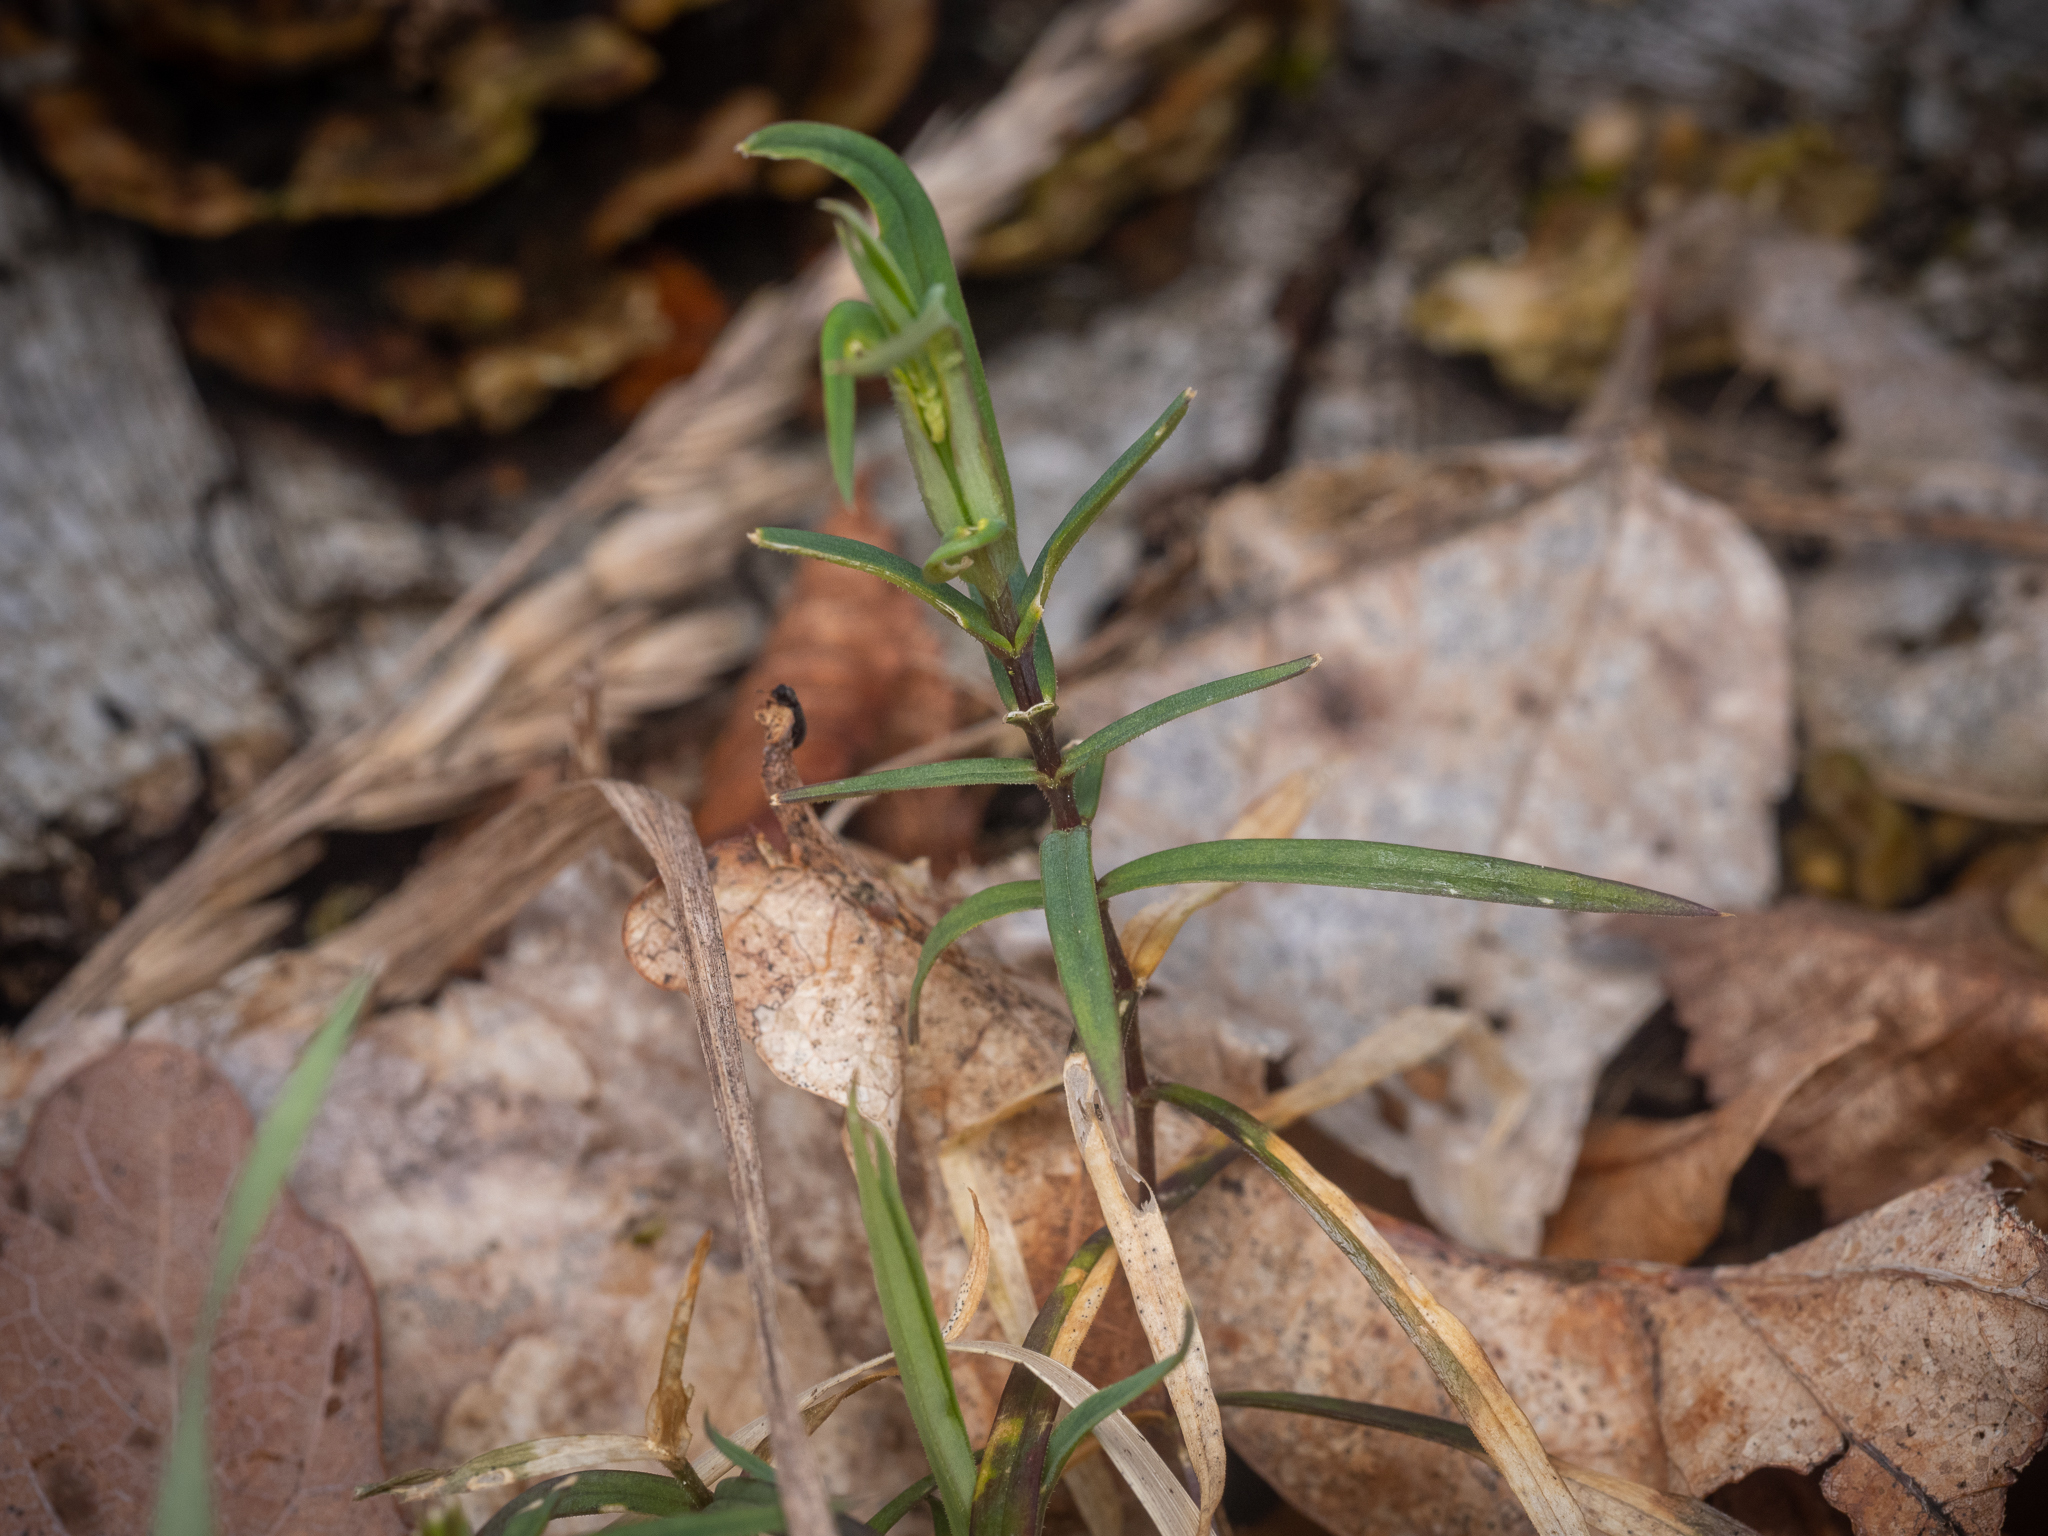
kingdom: Plantae
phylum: Tracheophyta
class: Magnoliopsida
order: Caryophyllales
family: Caryophyllaceae
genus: Rabelera
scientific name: Rabelera holostea
